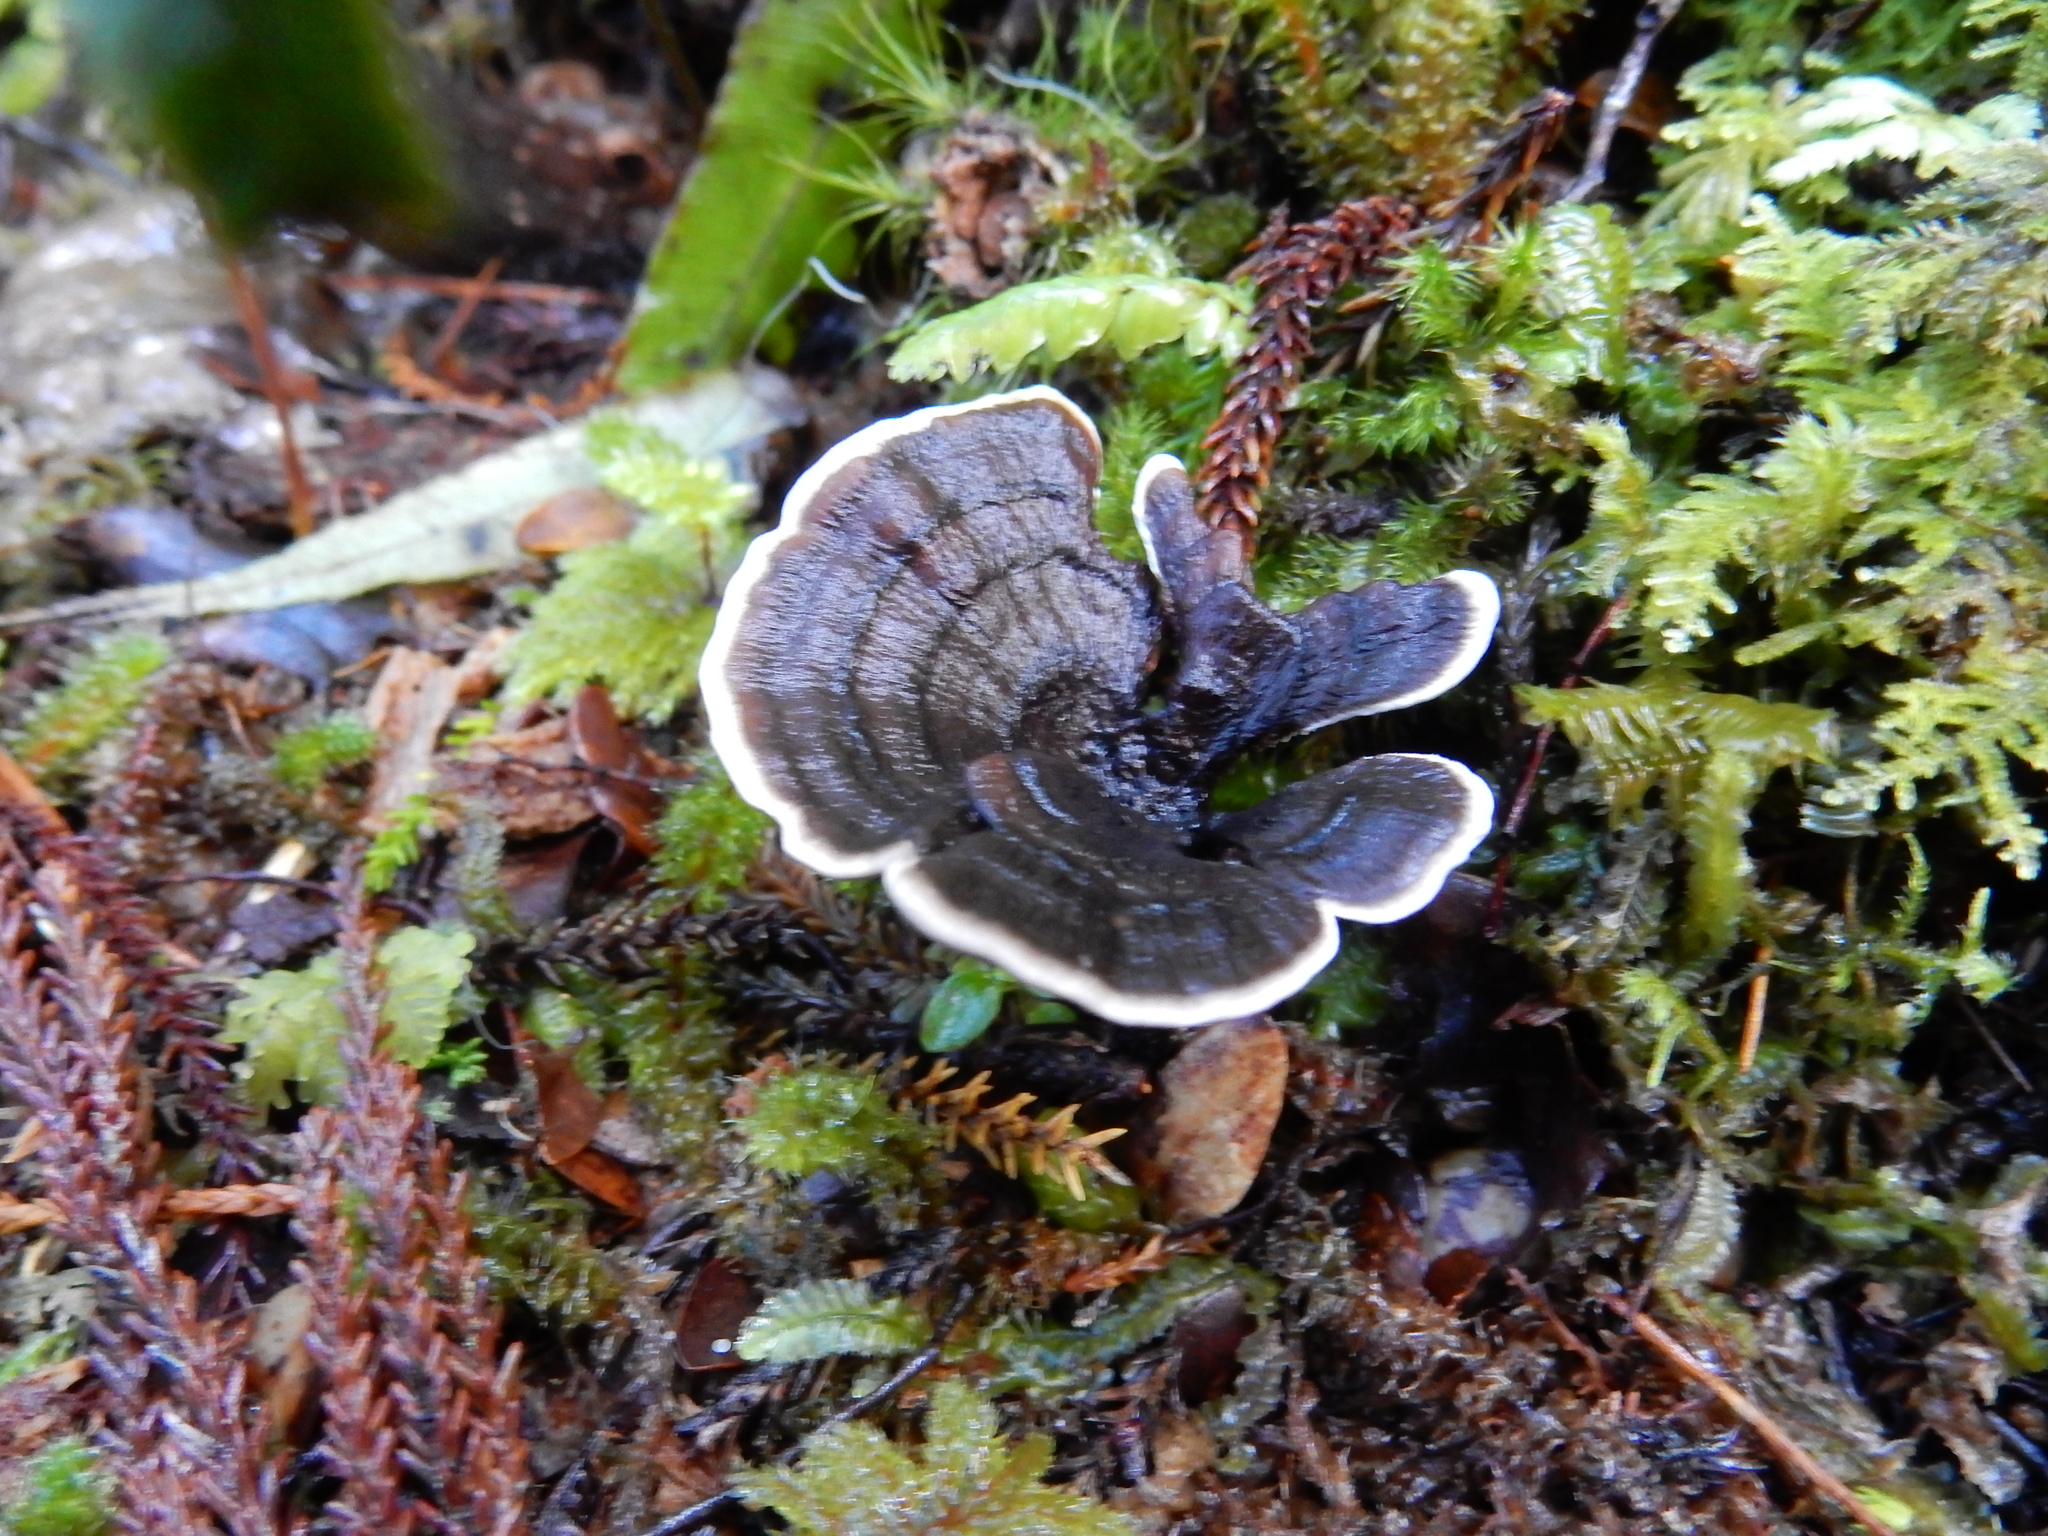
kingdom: Fungi
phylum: Basidiomycota
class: Agaricomycetes
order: Thelephorales
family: Thelephoraceae
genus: Phellodon
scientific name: Phellodon sinclairii
